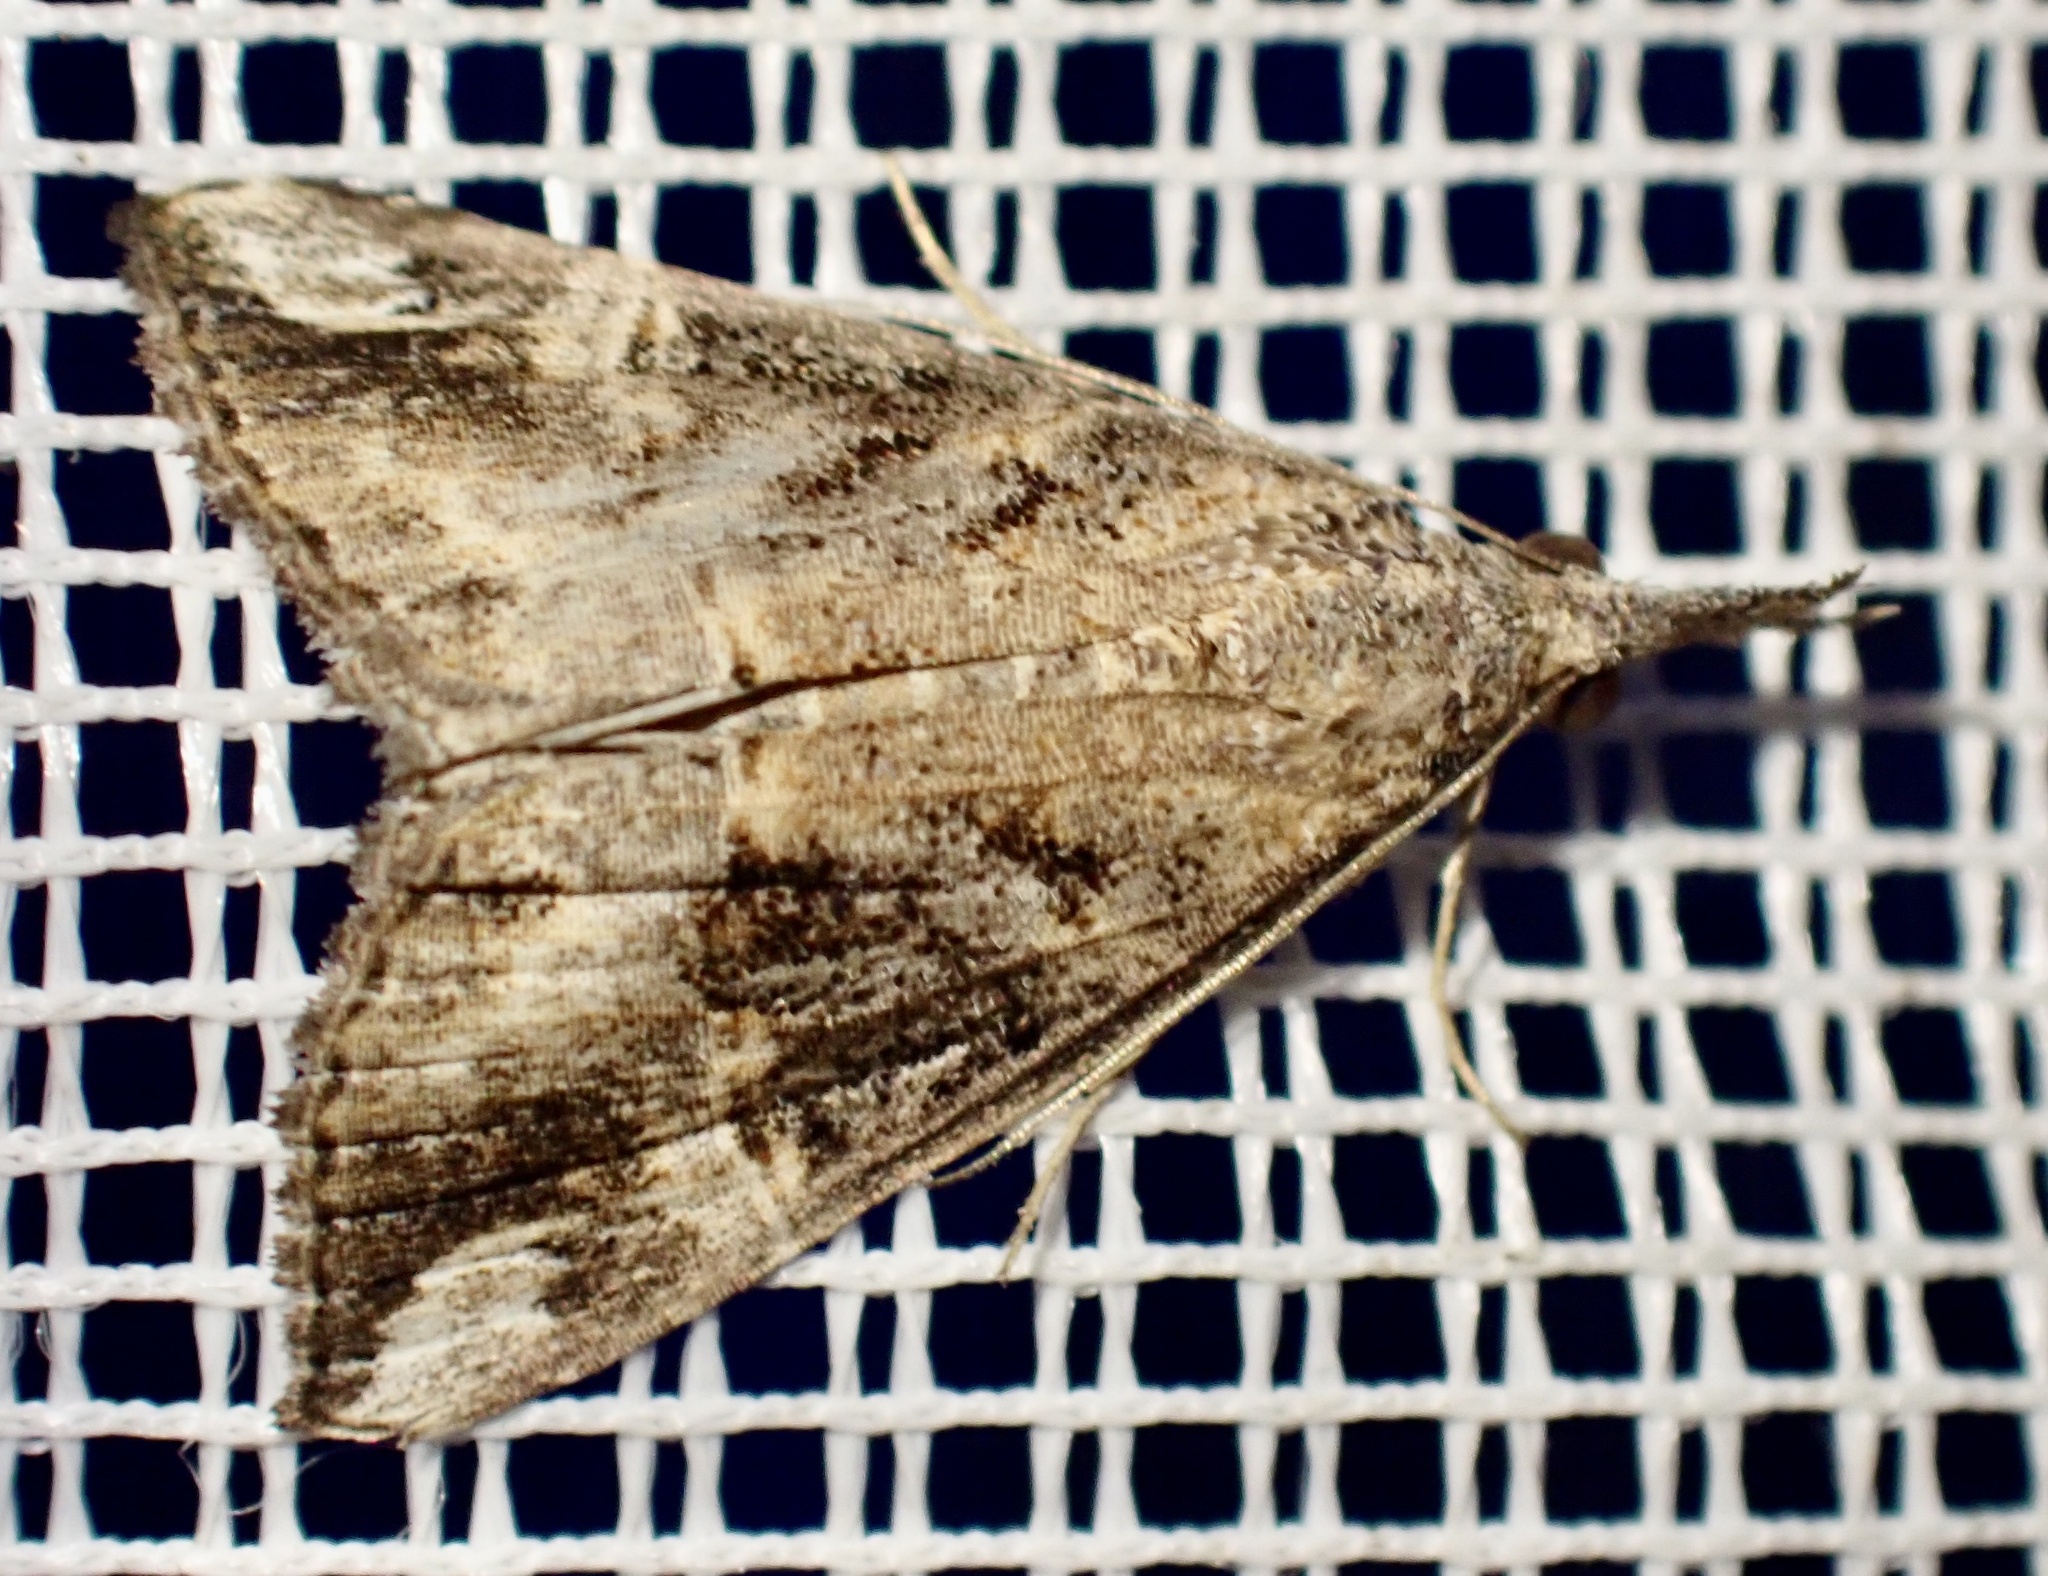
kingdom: Animalia
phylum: Arthropoda
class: Insecta
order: Lepidoptera
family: Erebidae
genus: Hypena
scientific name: Hypena commixtalis
